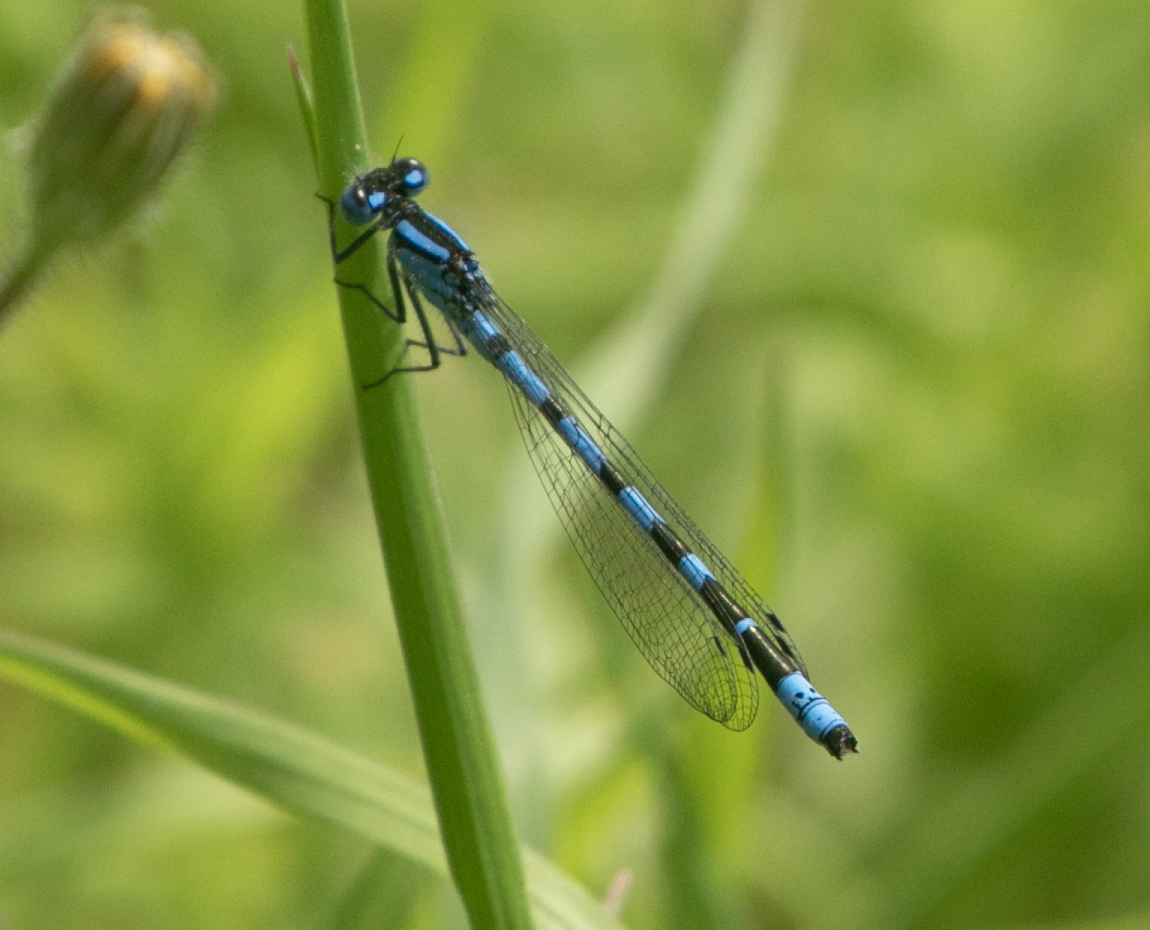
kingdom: Animalia
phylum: Arthropoda
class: Insecta
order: Odonata
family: Coenagrionidae
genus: Enallagma
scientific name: Enallagma cyathigerum
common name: Common blue damselfly
